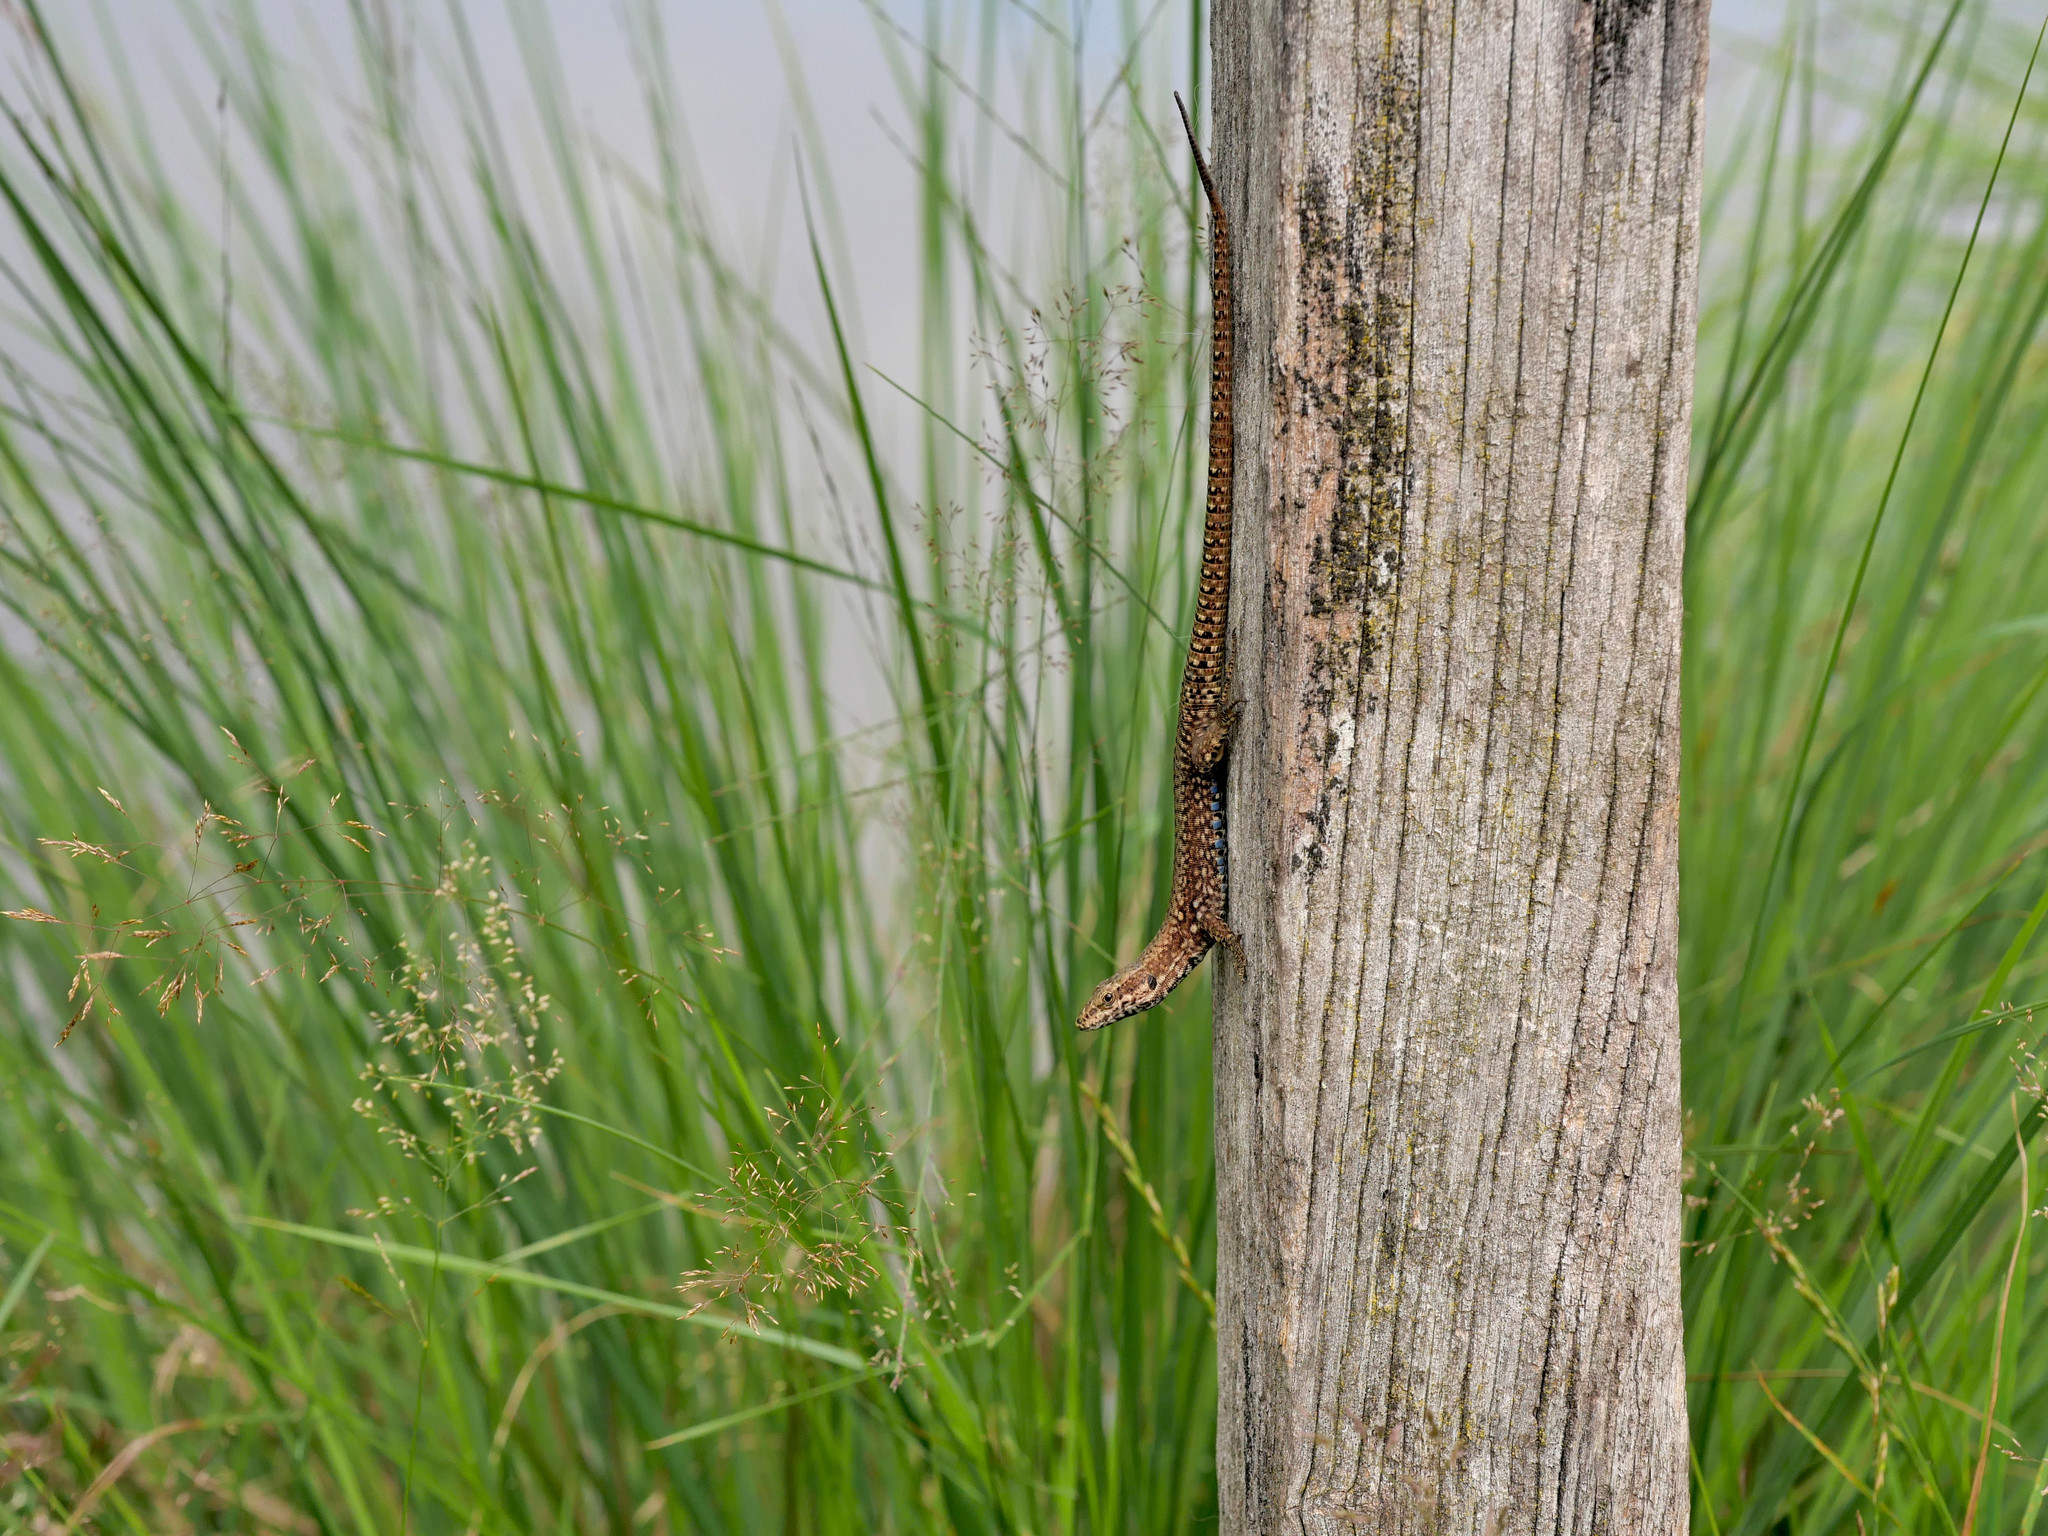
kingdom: Animalia
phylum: Chordata
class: Squamata
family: Lacertidae
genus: Podarcis
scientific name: Podarcis muralis
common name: Common wall lizard
